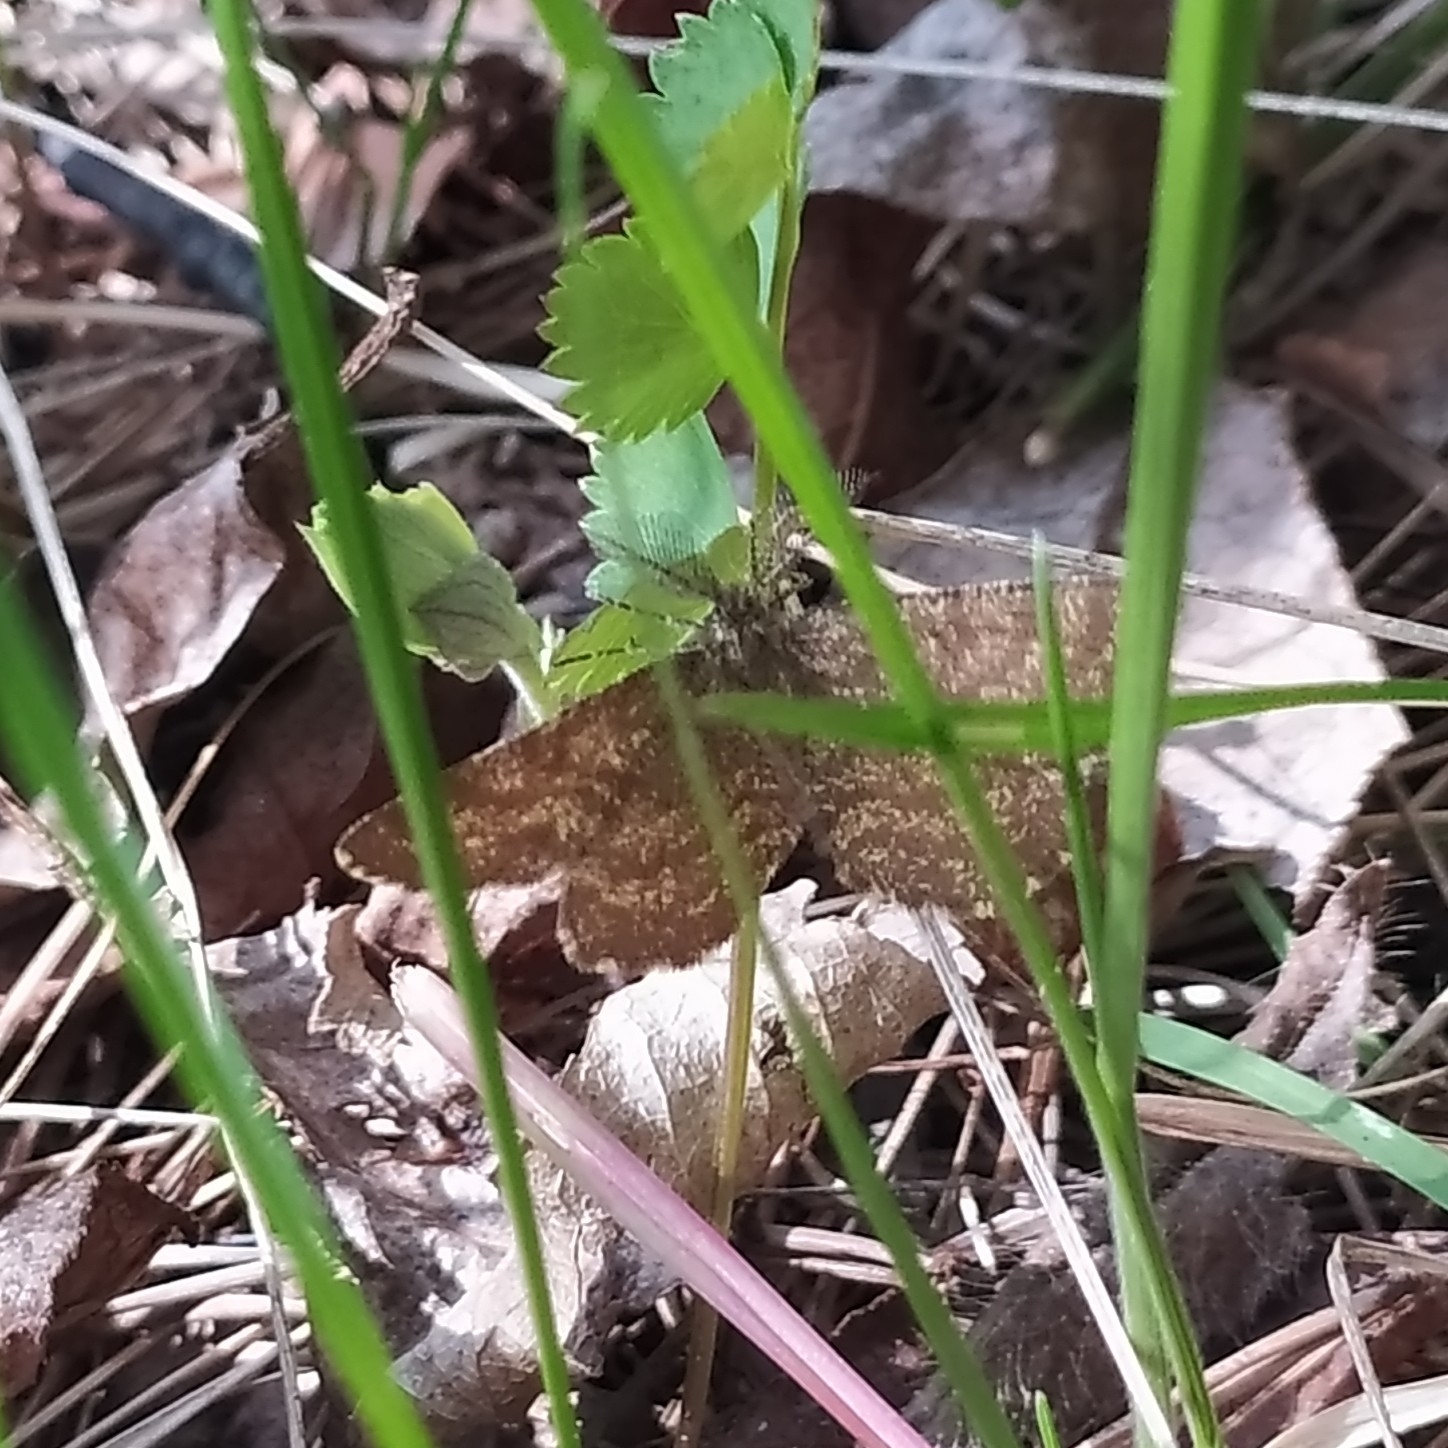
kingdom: Animalia
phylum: Arthropoda
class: Insecta
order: Lepidoptera
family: Geometridae
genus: Ematurga
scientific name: Ematurga atomaria
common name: Common heath
